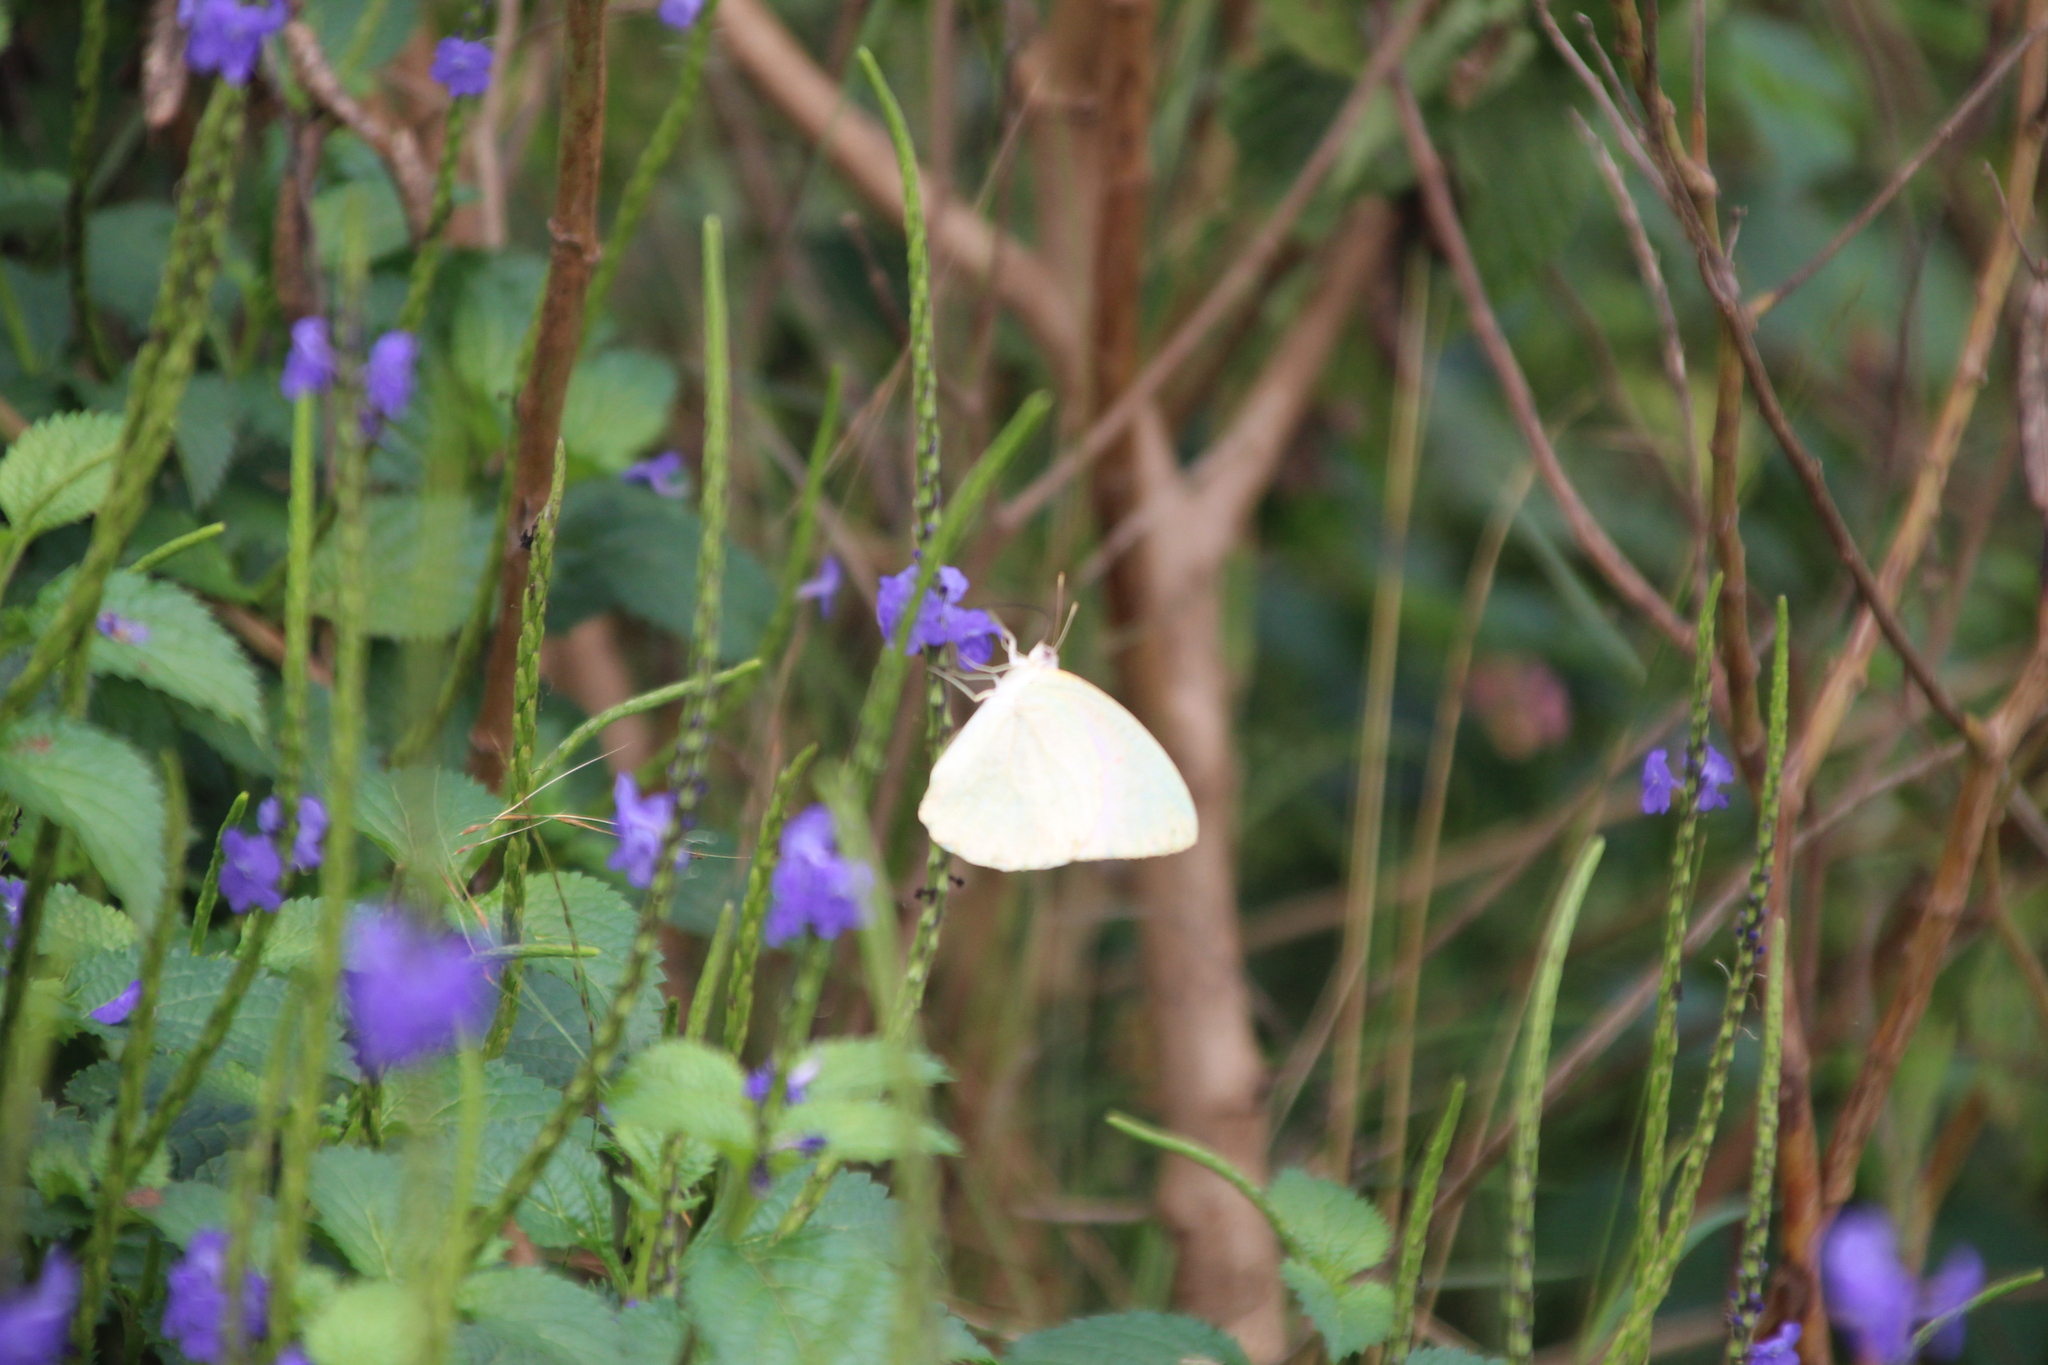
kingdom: Animalia
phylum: Arthropoda
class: Insecta
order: Lepidoptera
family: Pieridae
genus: Catopsilia
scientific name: Catopsilia florella
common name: African migrant
